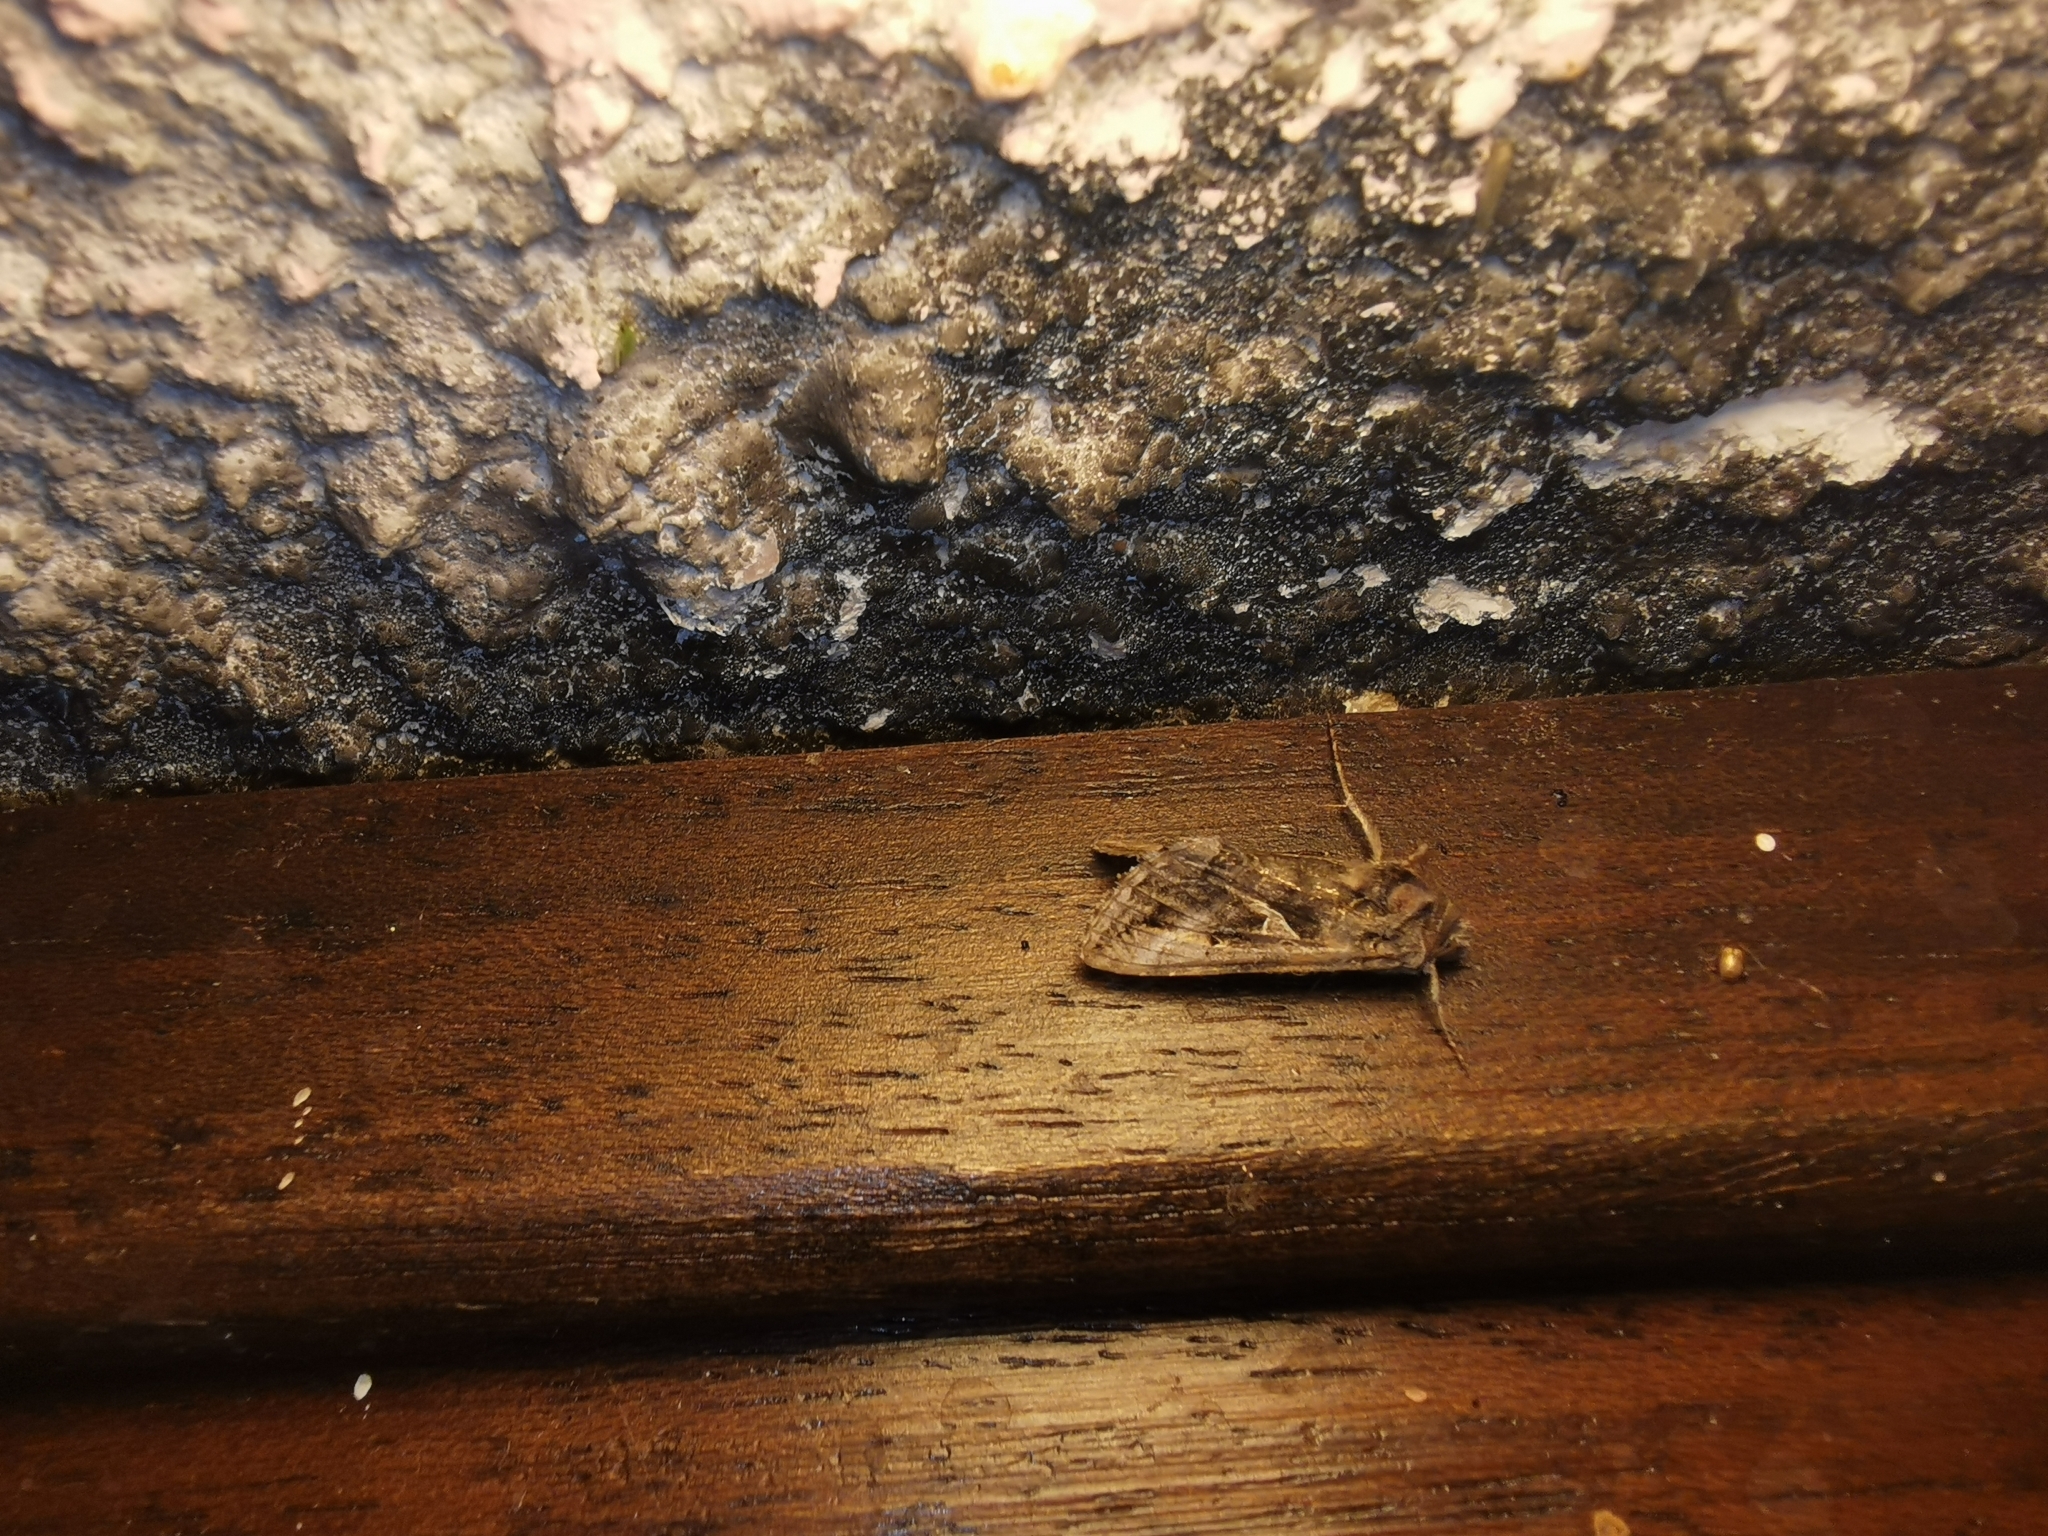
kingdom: Animalia
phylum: Arthropoda
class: Insecta
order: Lepidoptera
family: Noctuidae
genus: Autographa
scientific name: Autographa gamma
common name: Silver y
